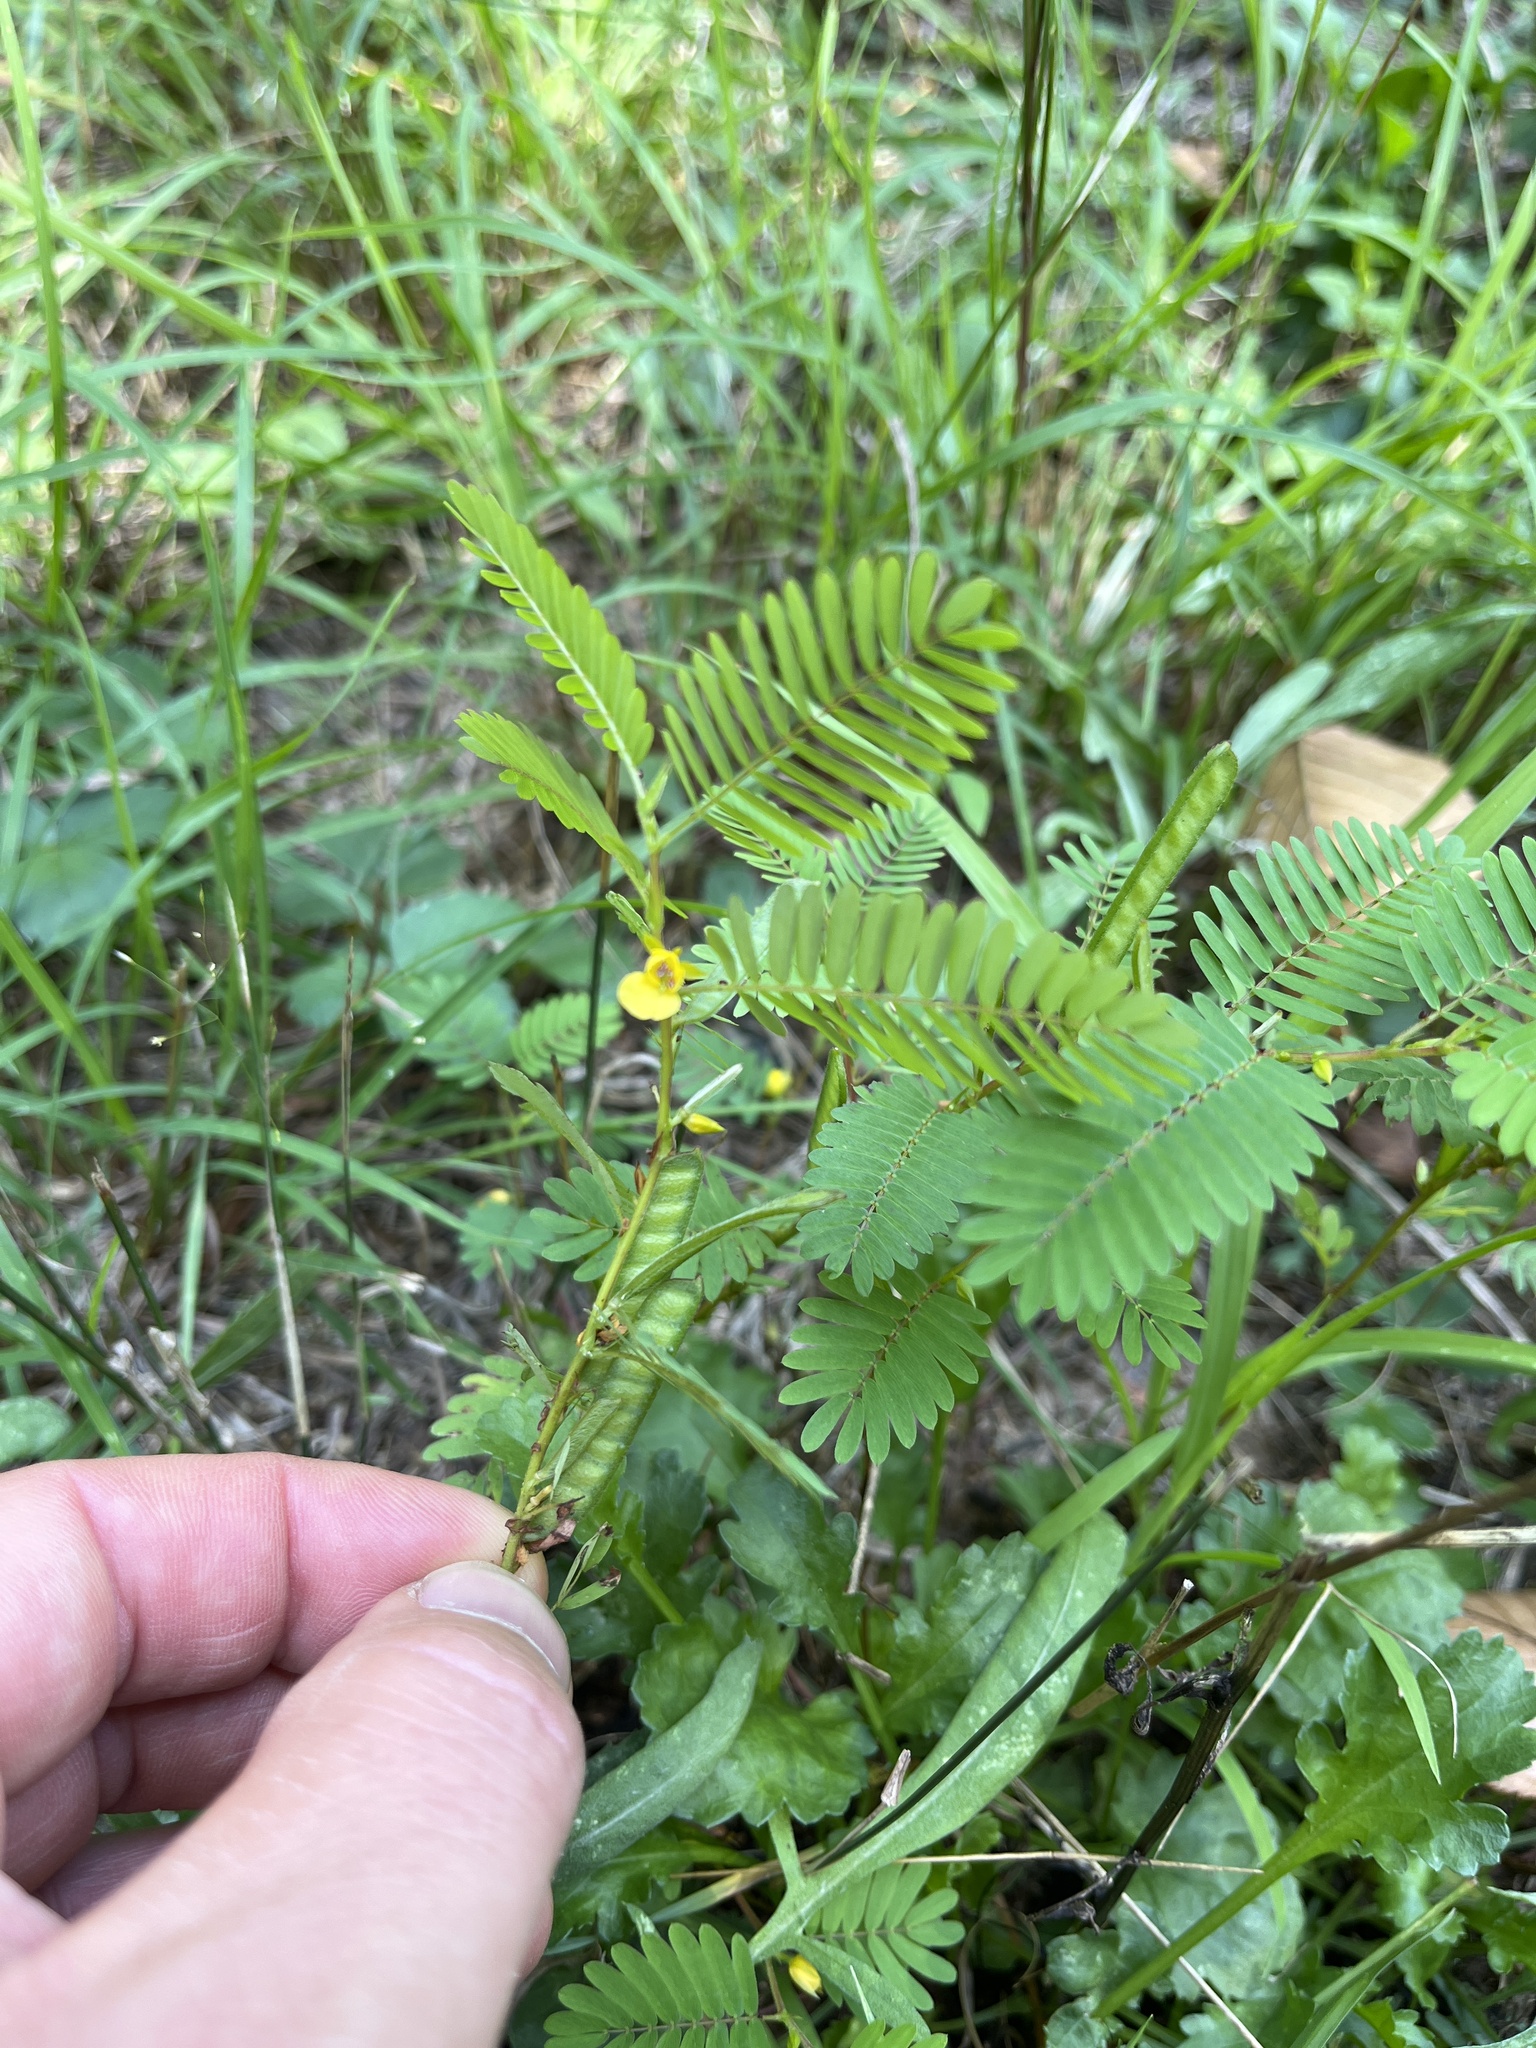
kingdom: Plantae
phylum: Tracheophyta
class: Magnoliopsida
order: Fabales
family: Fabaceae
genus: Chamaecrista
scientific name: Chamaecrista nictitans
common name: Sensitive cassia
